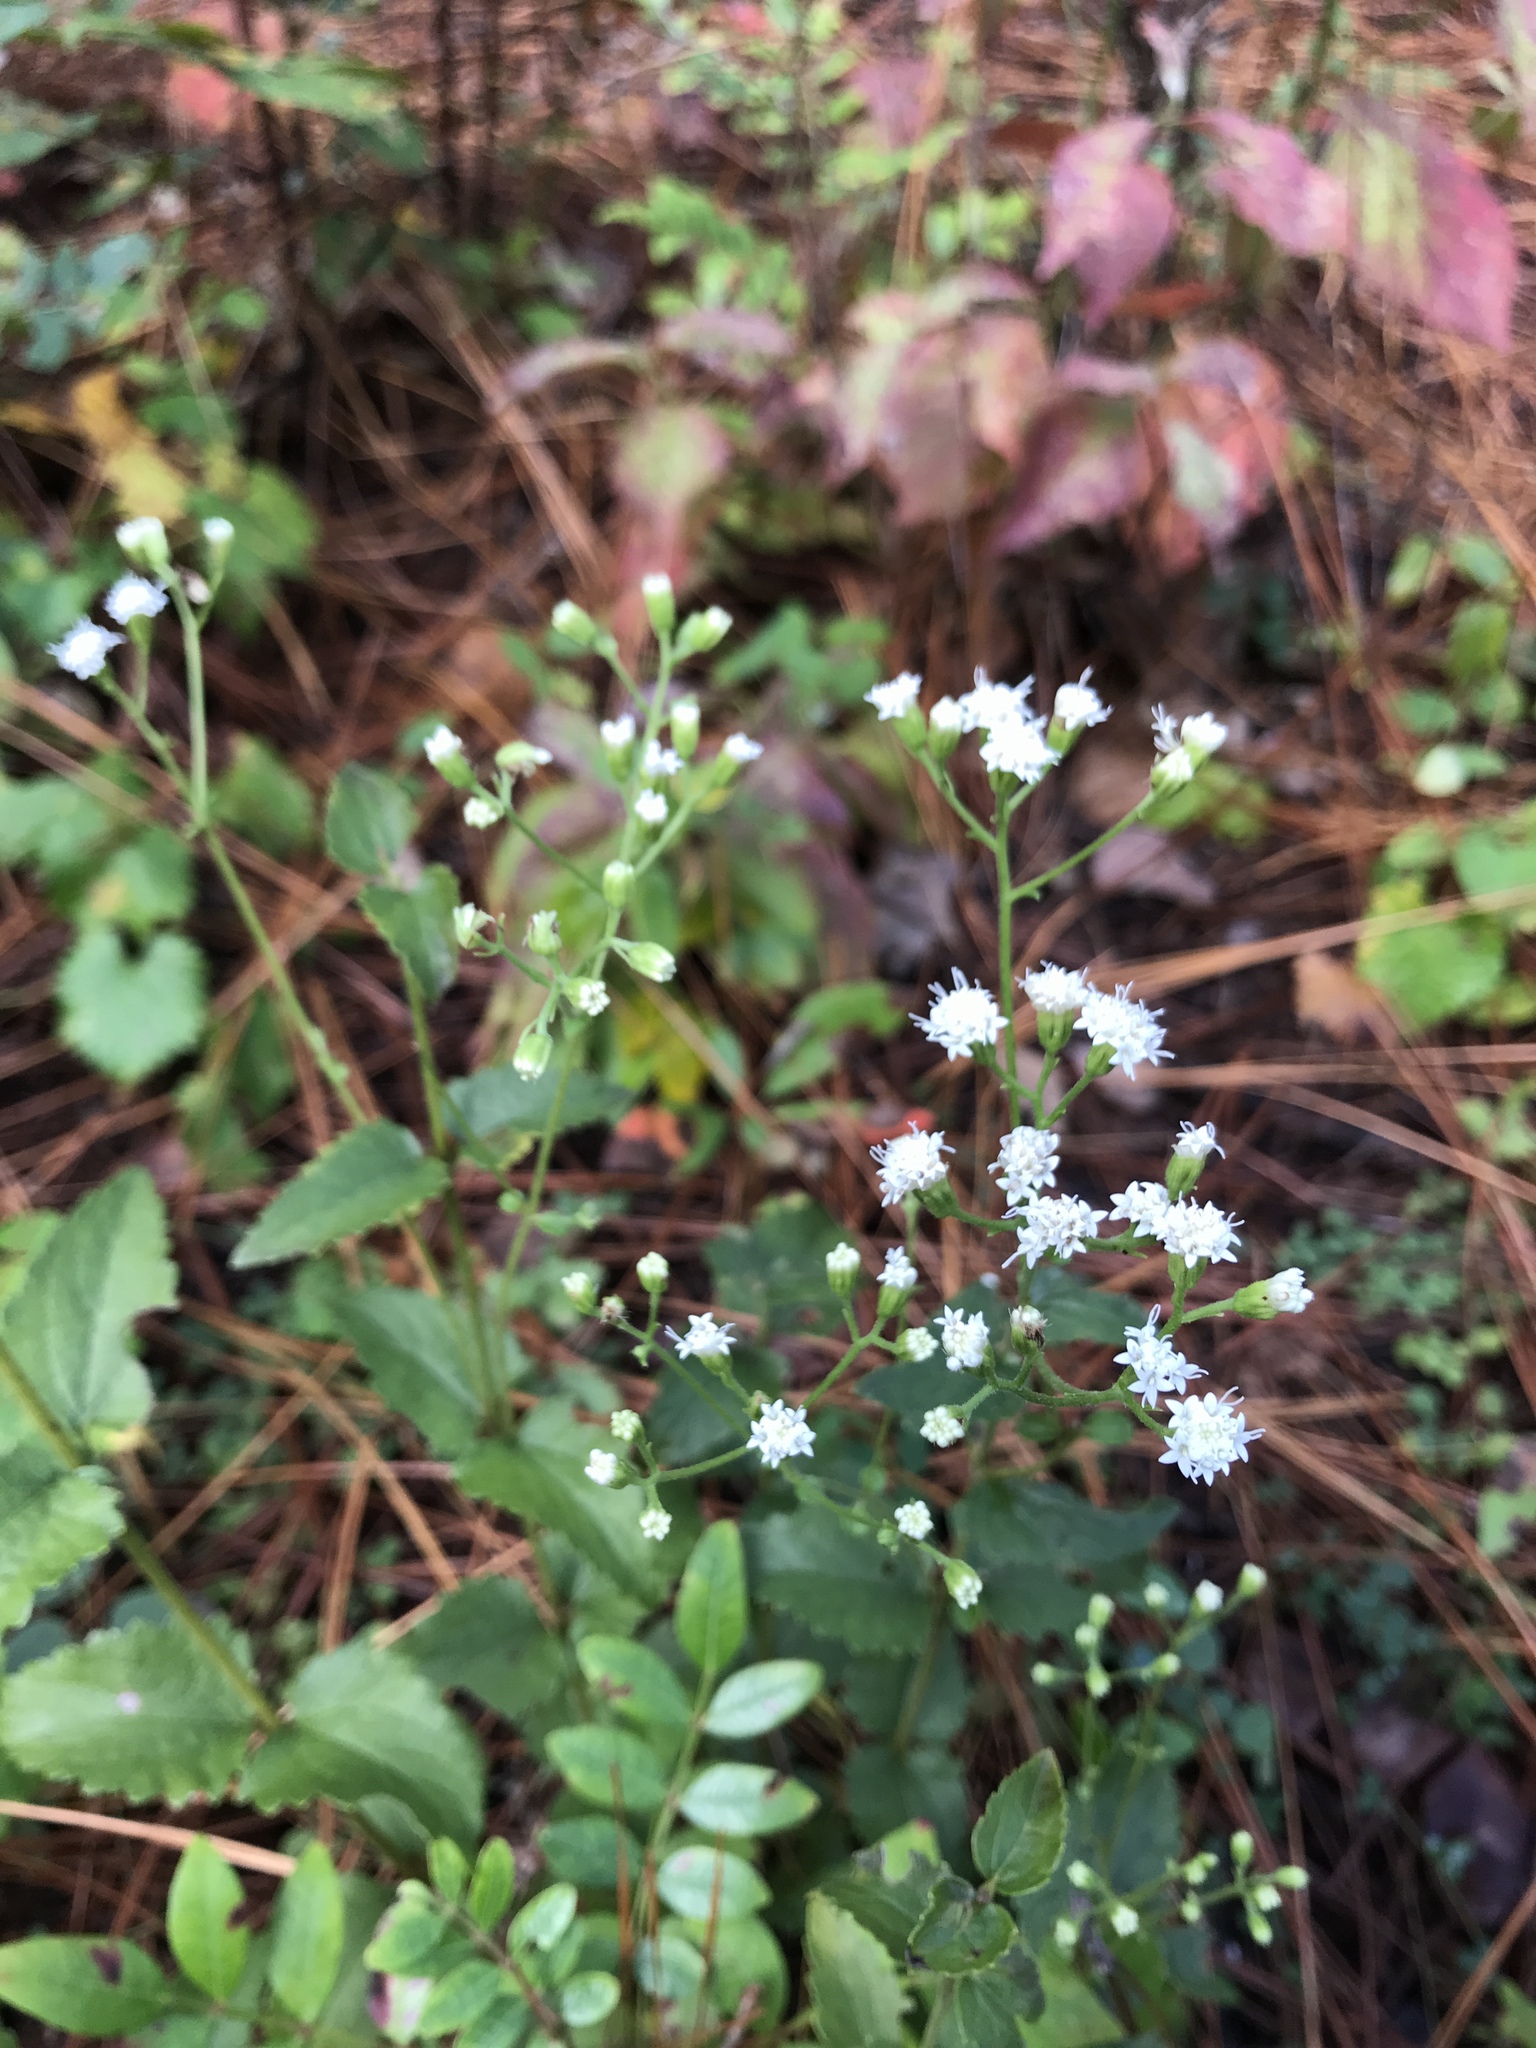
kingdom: Plantae
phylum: Tracheophyta
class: Magnoliopsida
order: Asterales
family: Asteraceae
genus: Ageratina
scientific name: Ageratina aromatica
